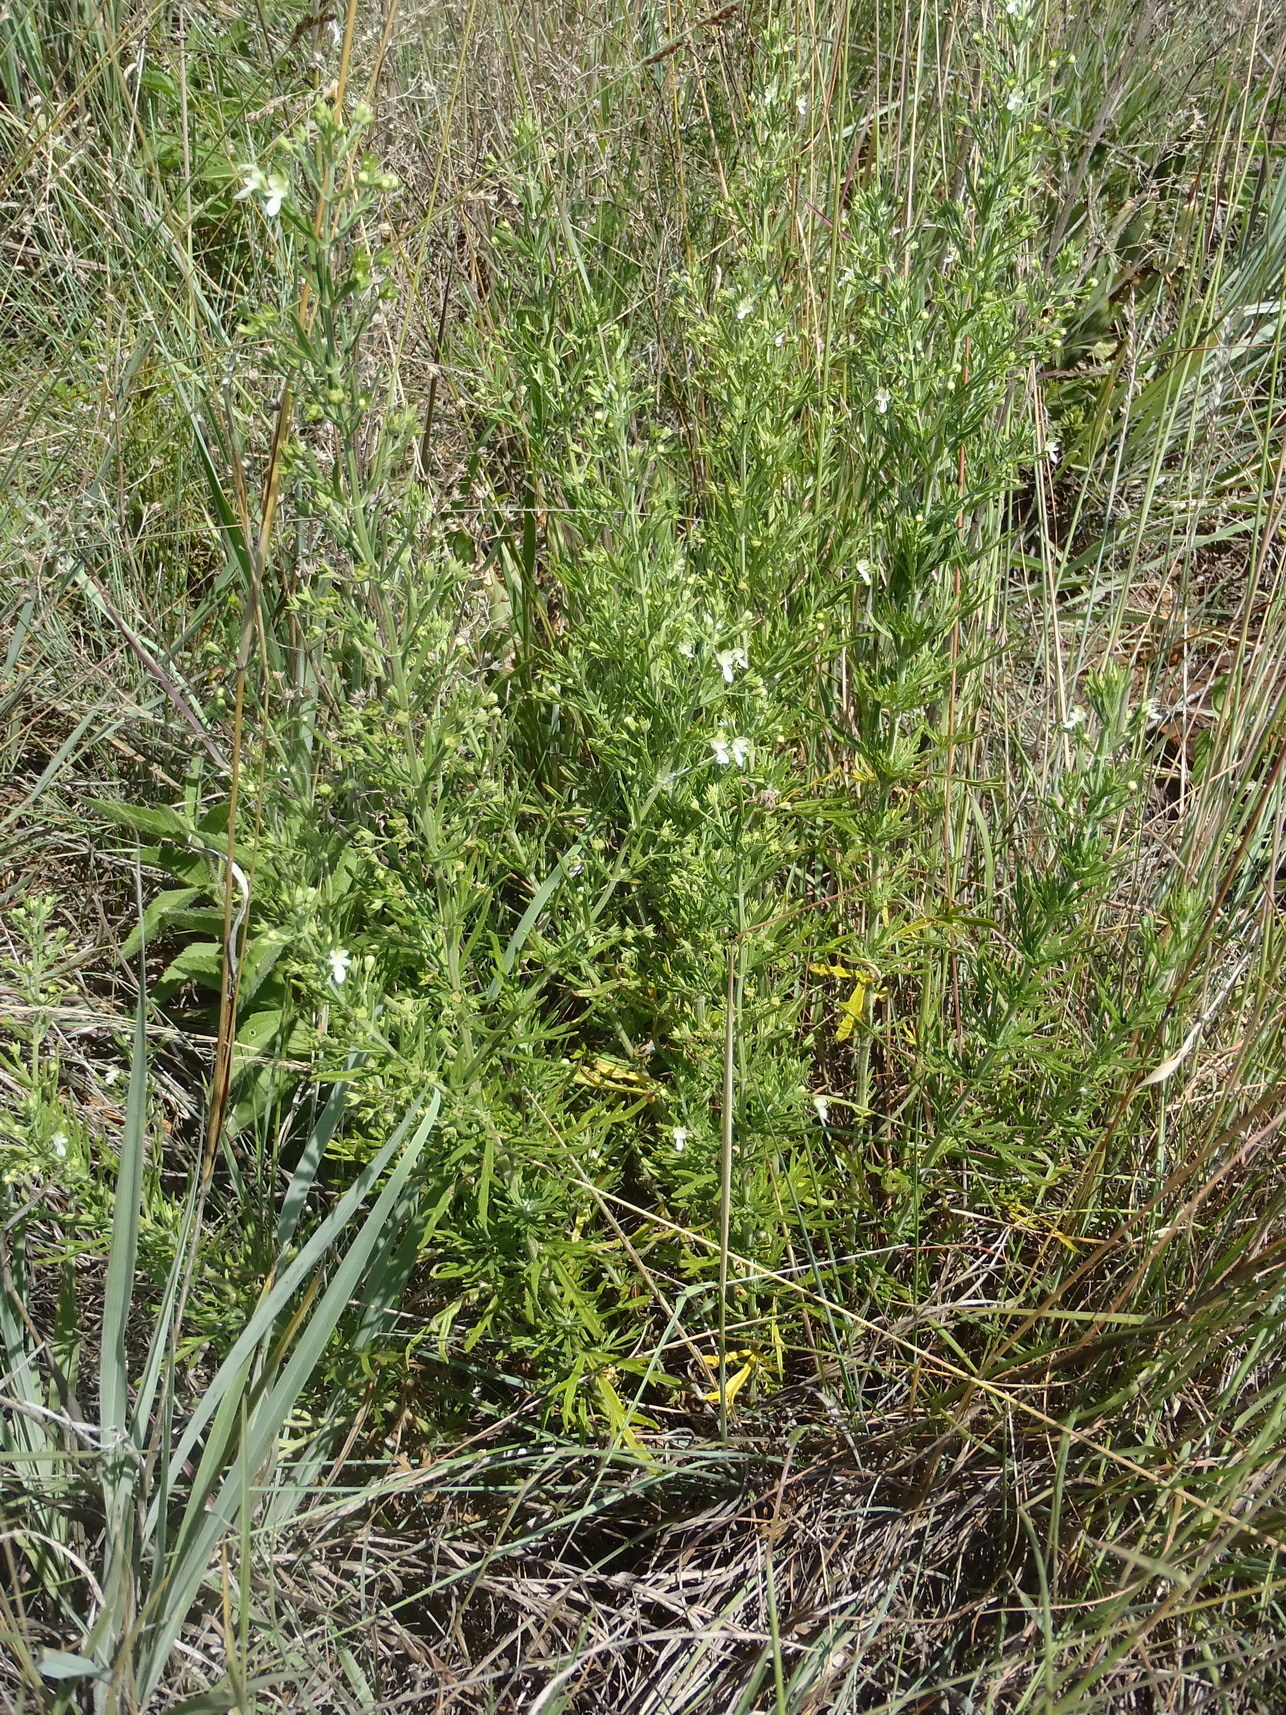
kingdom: Plantae
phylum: Tracheophyta
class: Magnoliopsida
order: Lamiales
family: Lamiaceae
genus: Teucrium
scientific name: Teucrium trifidum
